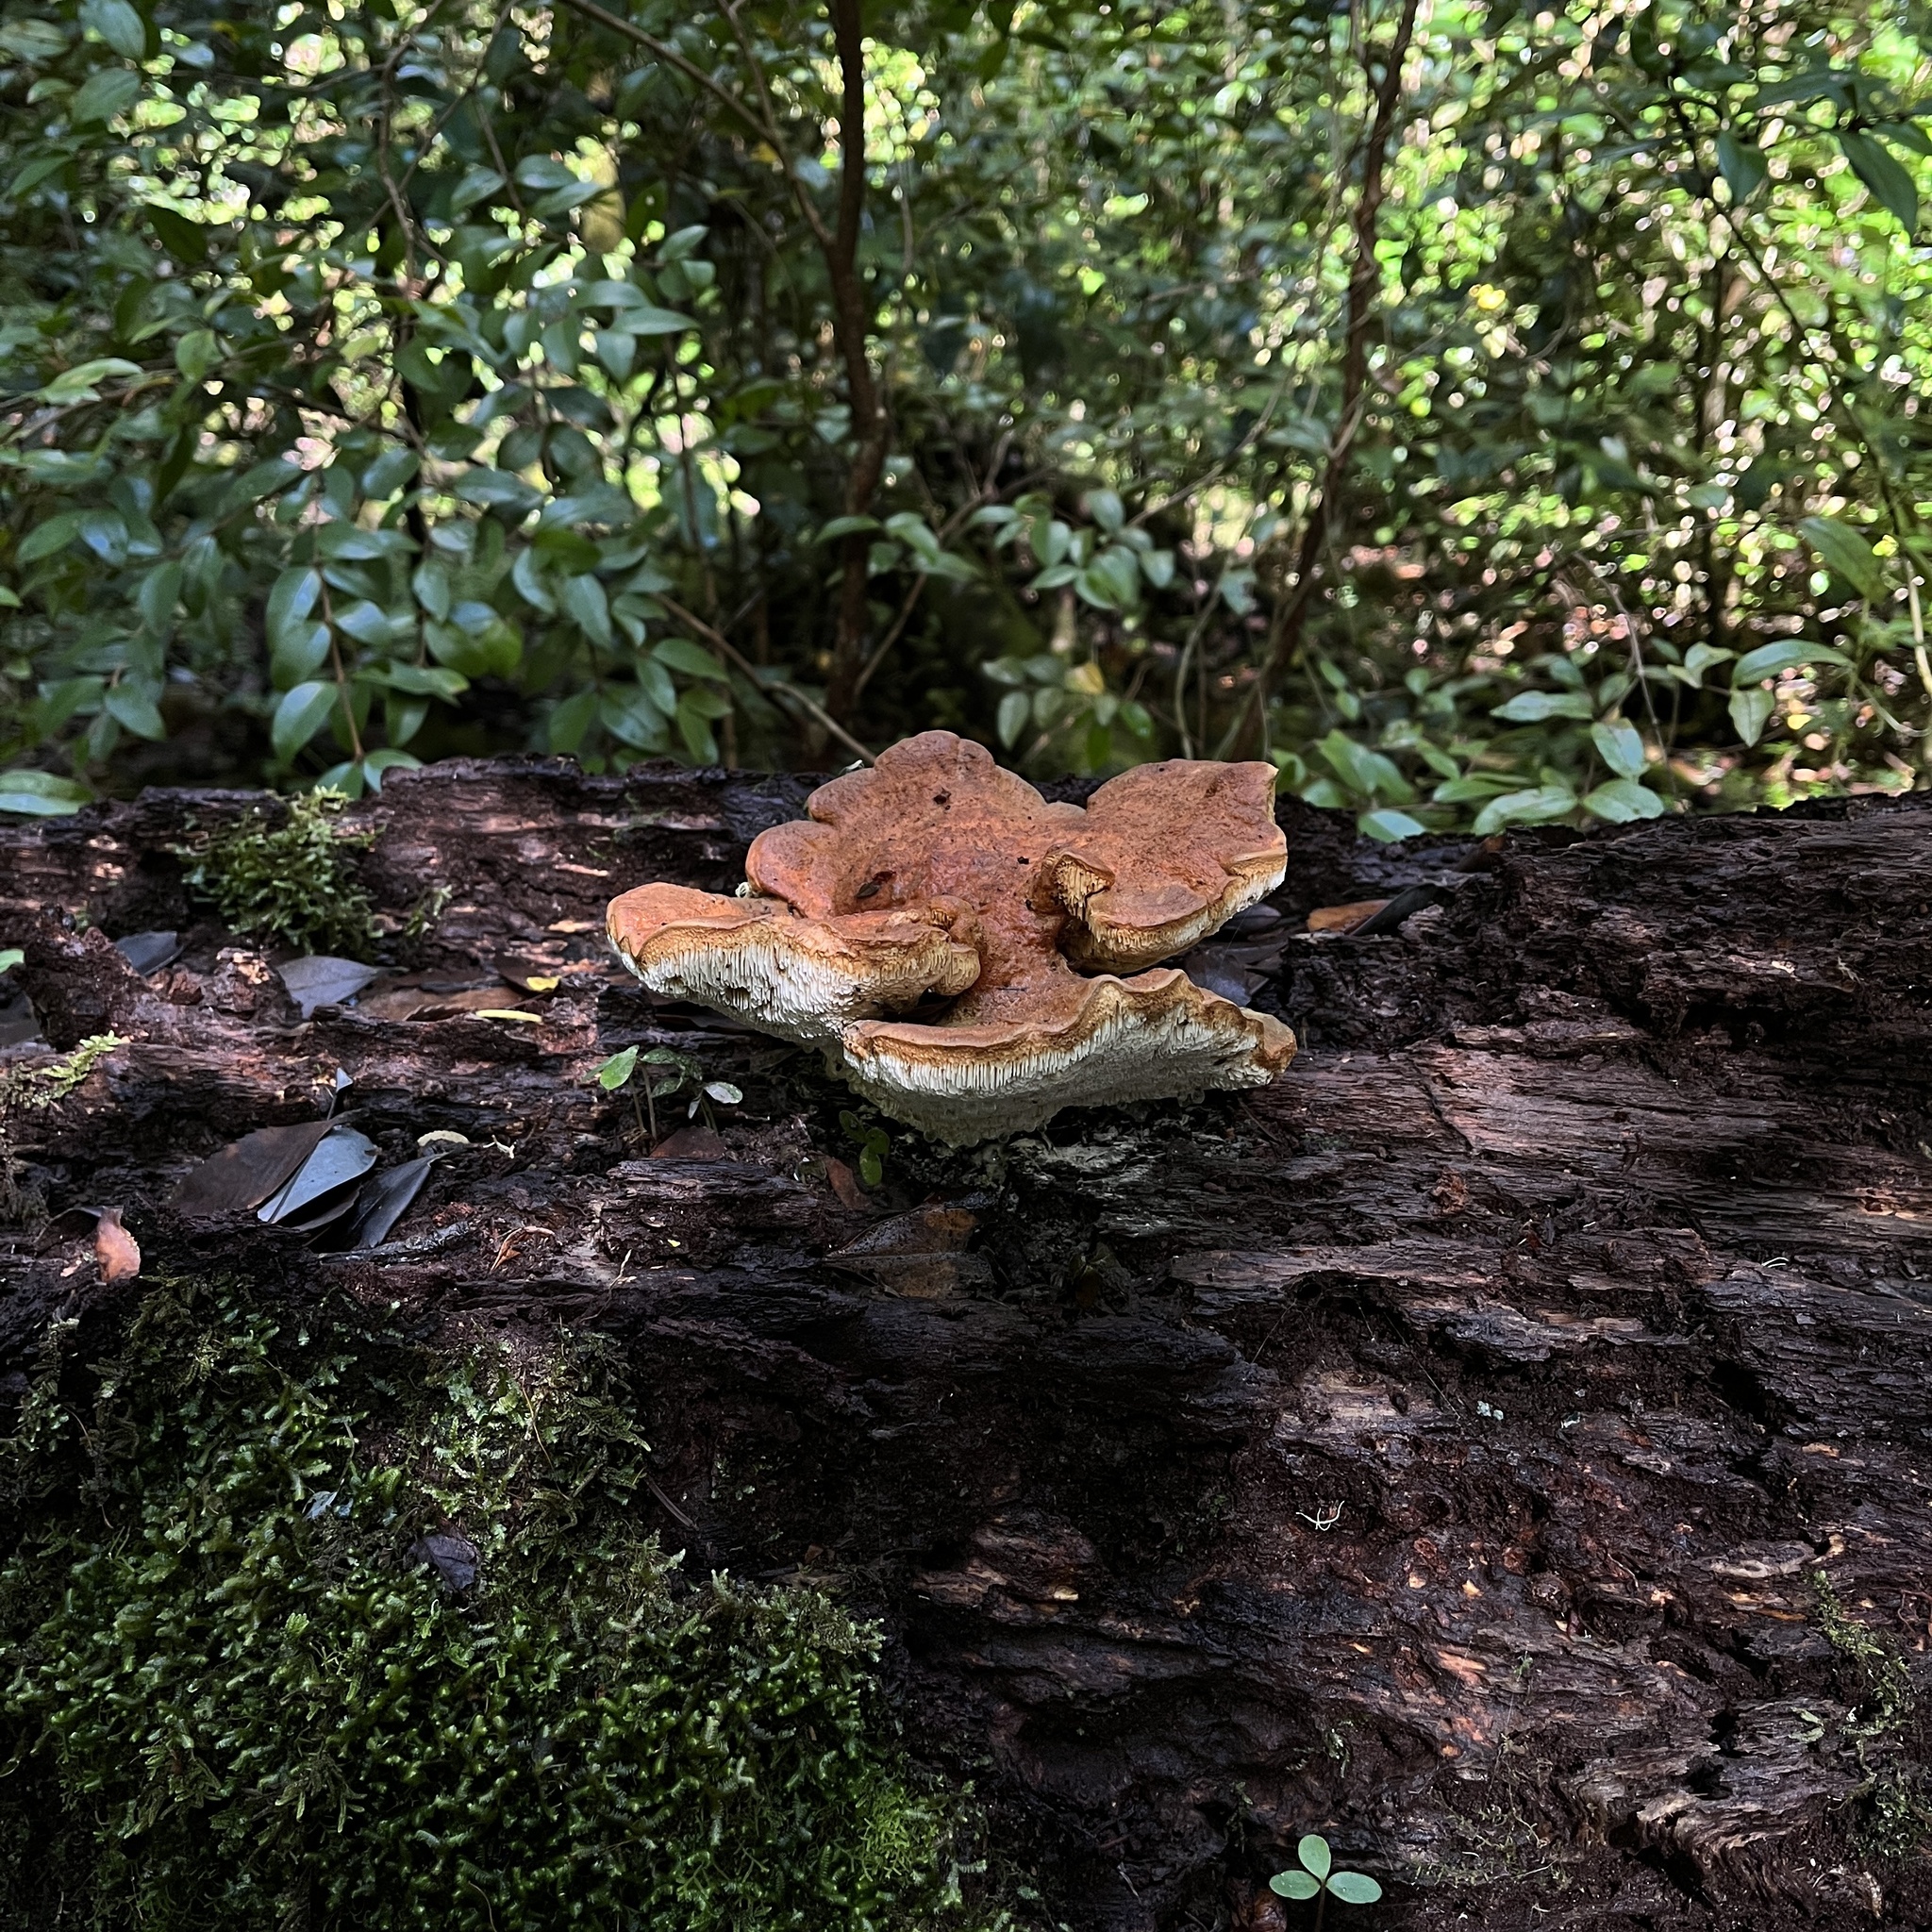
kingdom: Fungi
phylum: Basidiomycota
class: Agaricomycetes
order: Russulales
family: Bondarzewiaceae
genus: Bondarzewia
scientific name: Bondarzewia guaitecasensis
